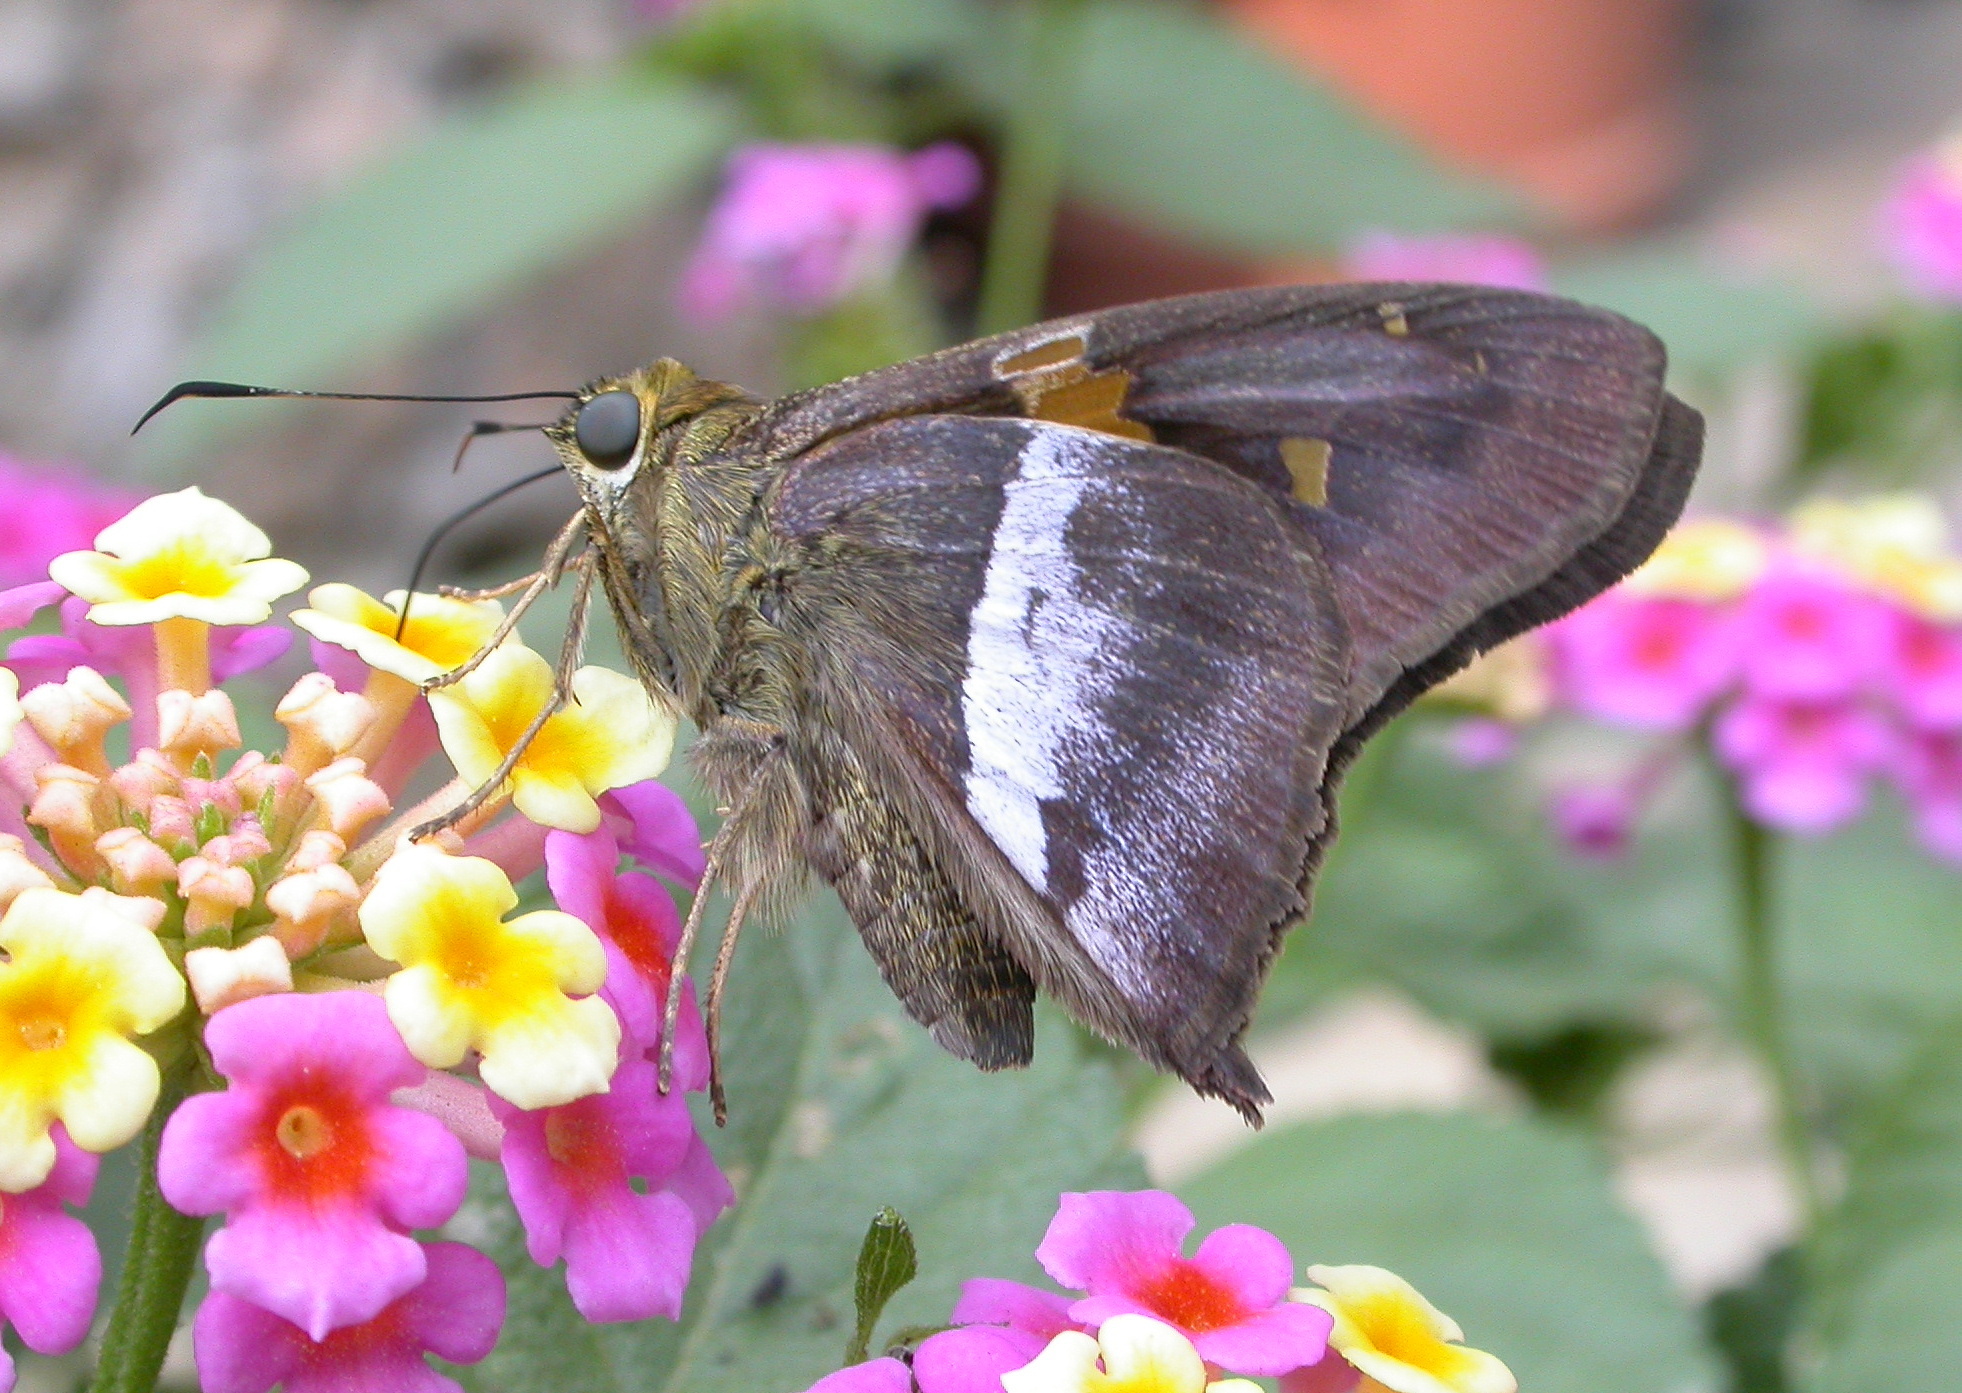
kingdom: Animalia
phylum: Arthropoda
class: Insecta
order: Lepidoptera
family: Hesperiidae
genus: Aguna
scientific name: Aguna asander
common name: Gold-spotted aguna
